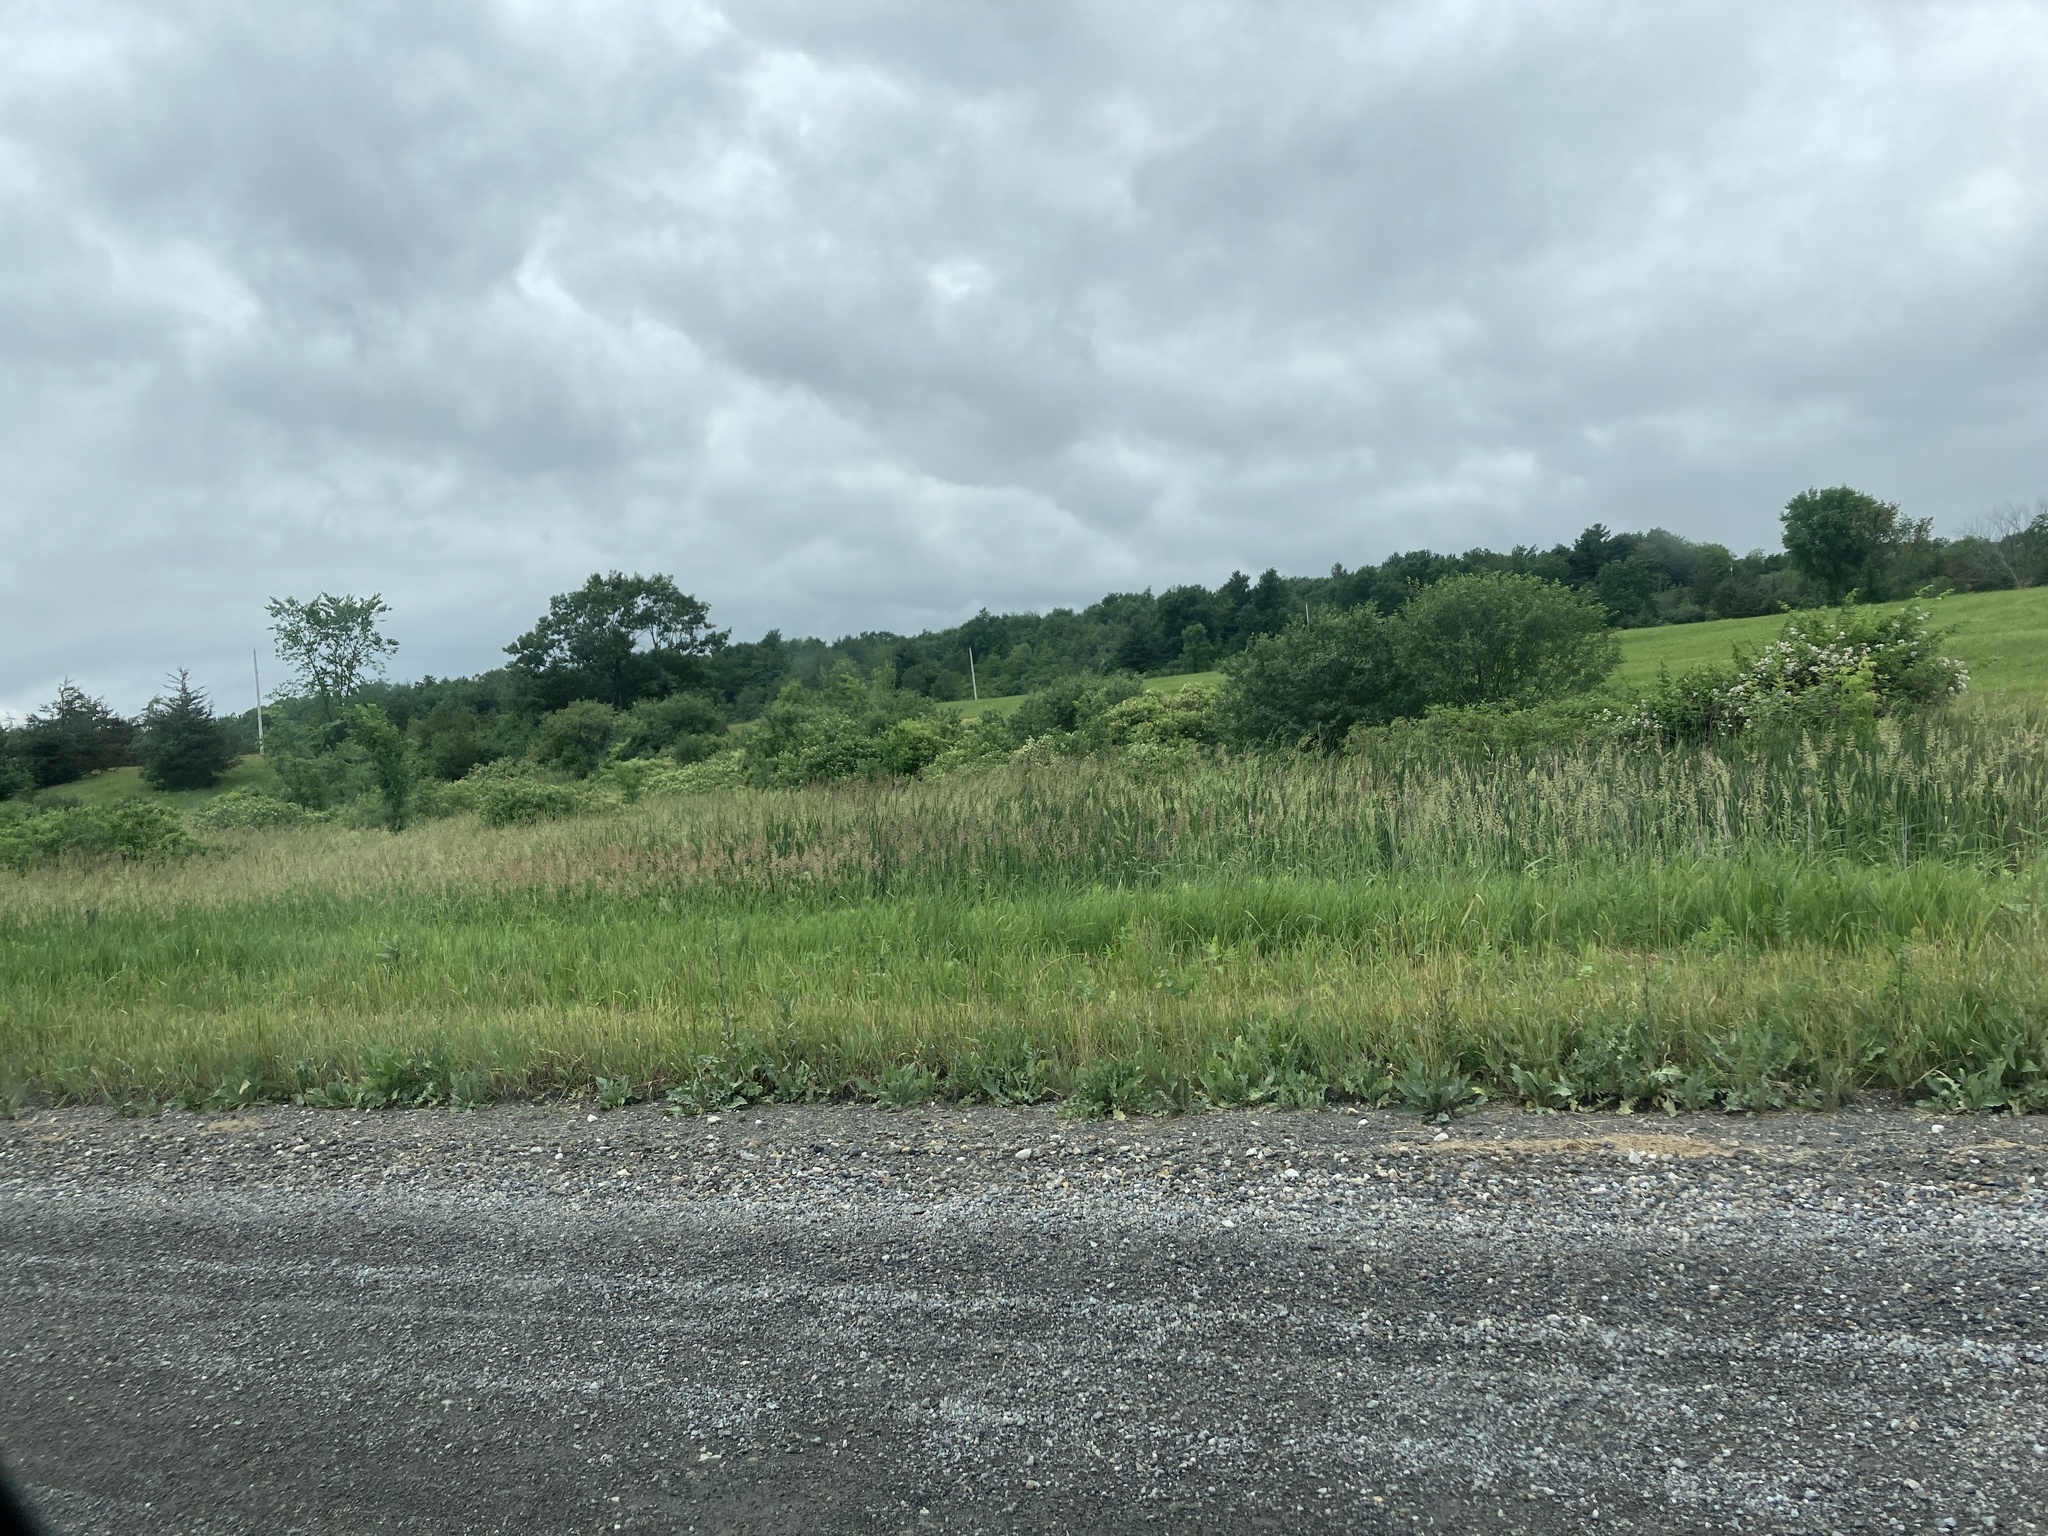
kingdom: Plantae
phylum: Tracheophyta
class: Liliopsida
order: Poales
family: Poaceae
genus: Phalaris
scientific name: Phalaris arundinacea
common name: Reed canary-grass
